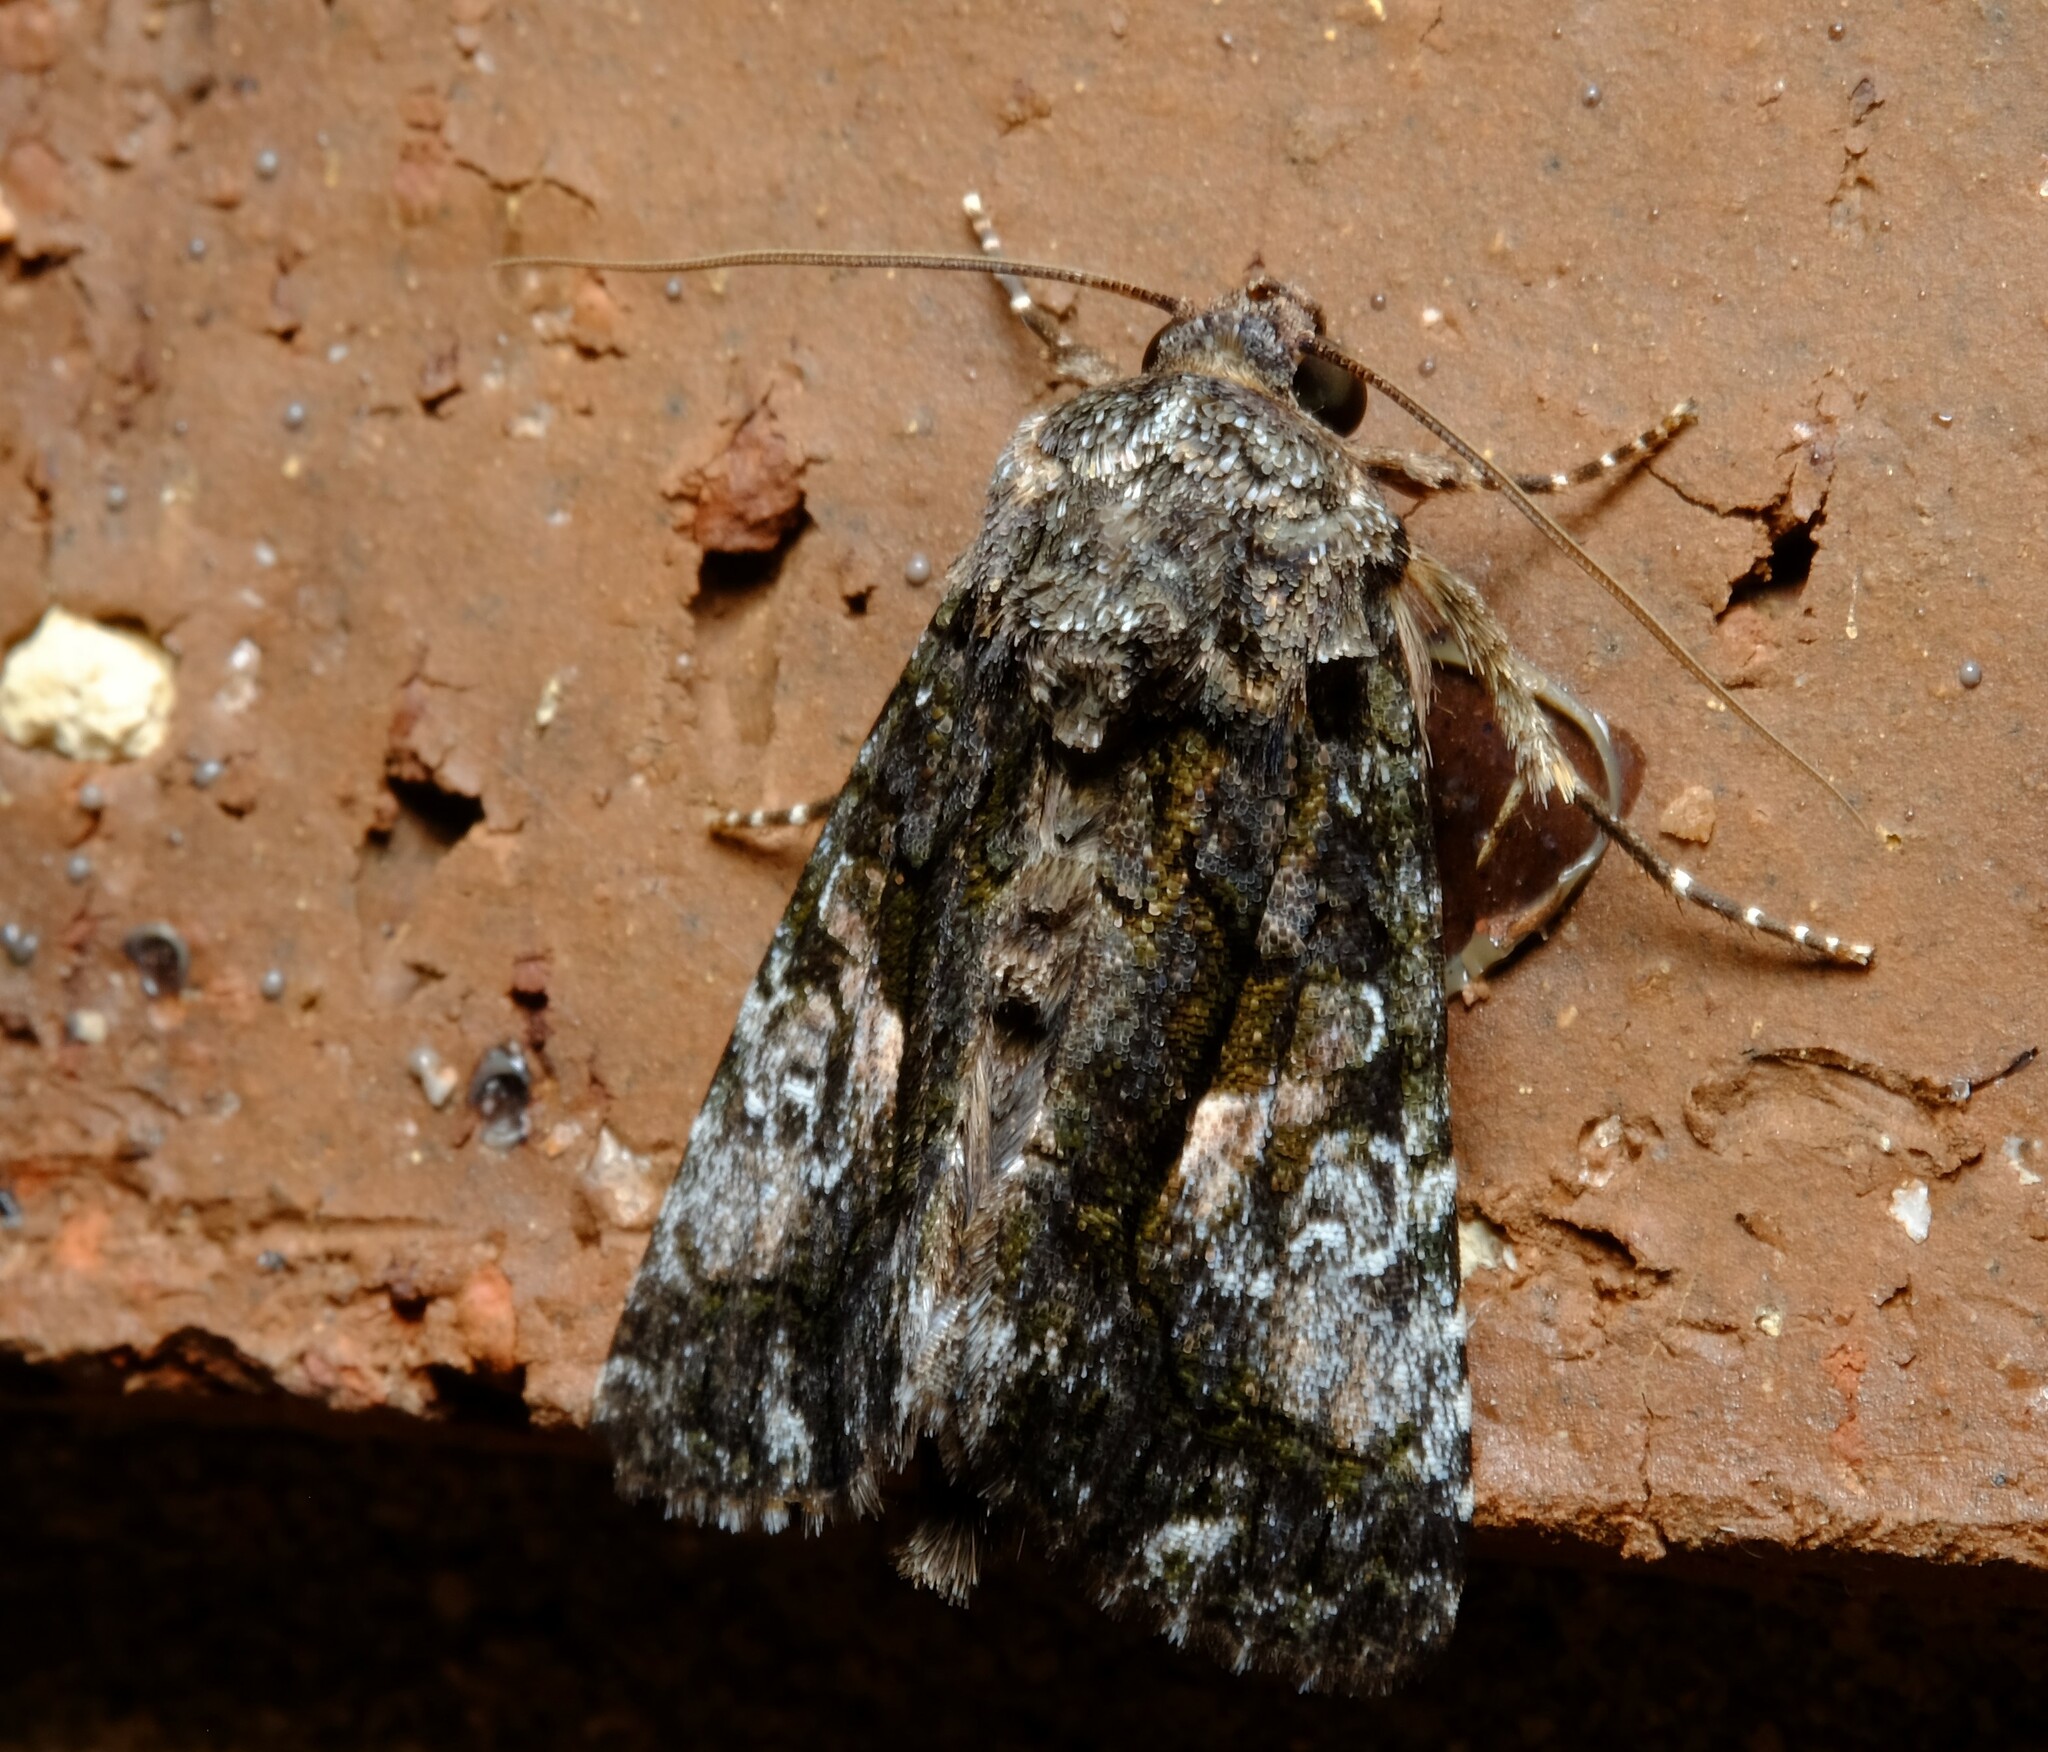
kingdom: Animalia
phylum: Arthropoda
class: Insecta
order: Lepidoptera
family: Noctuidae
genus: Aedia
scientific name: Aedia leucomelas
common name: Sorcerer
